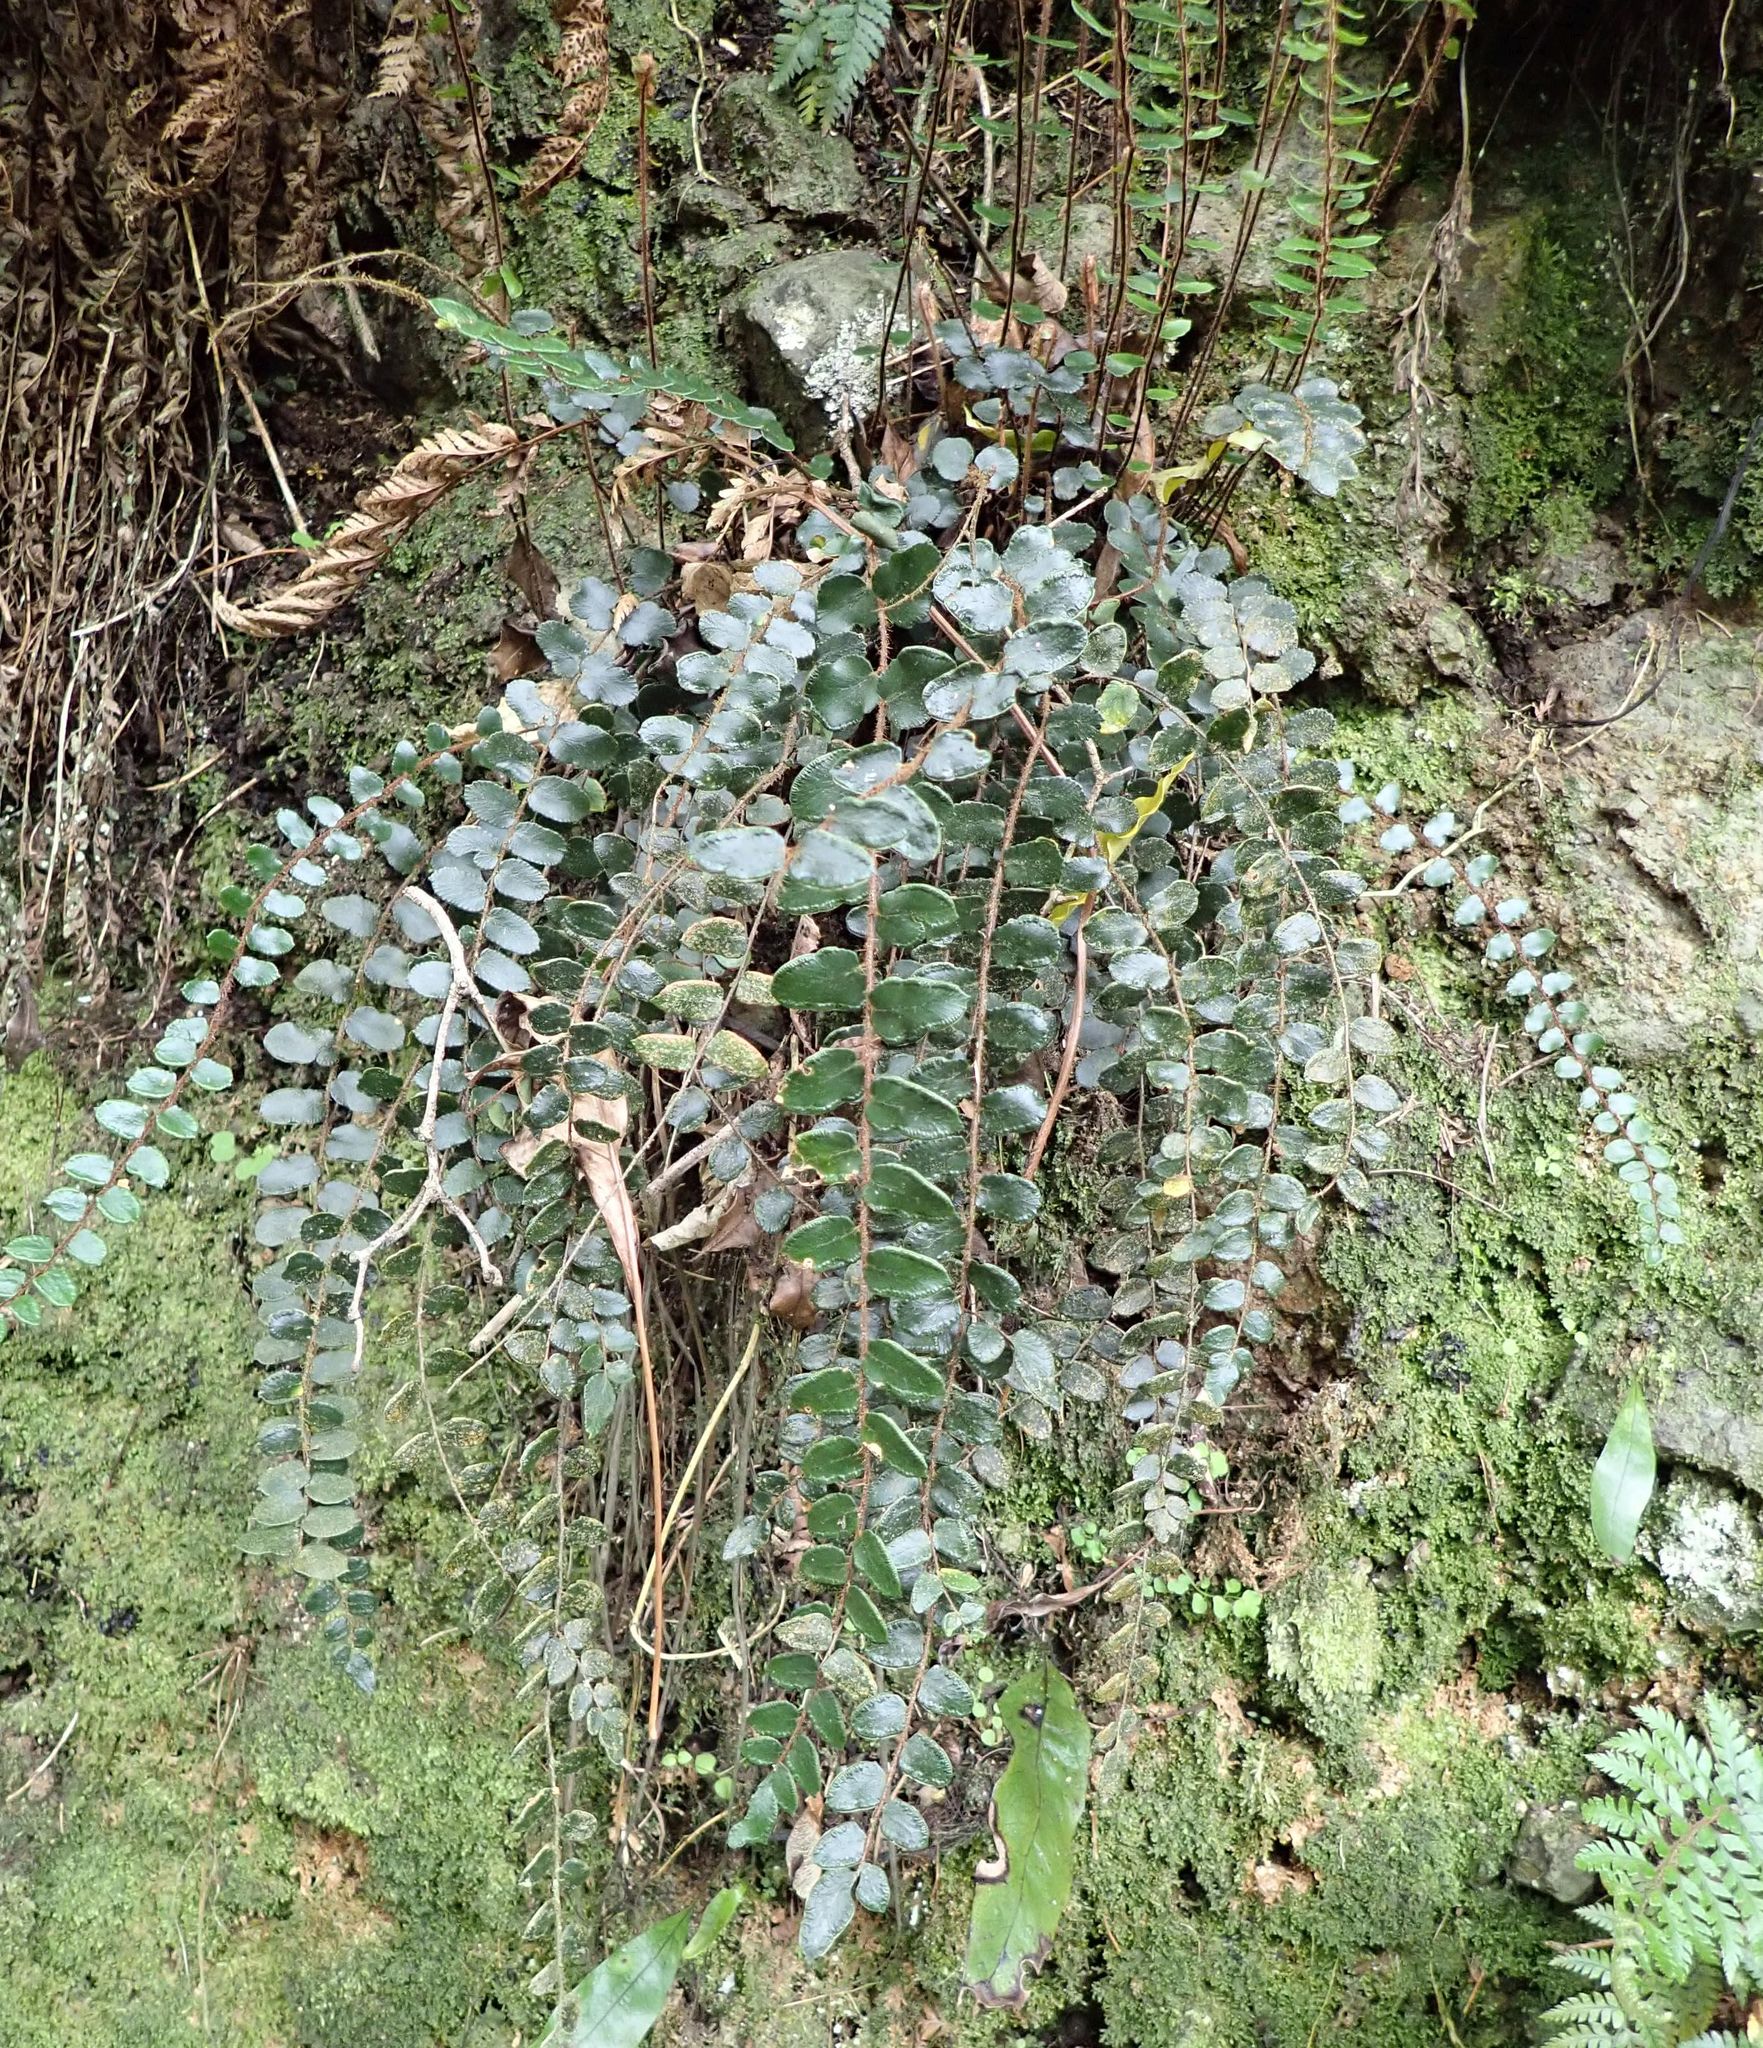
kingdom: Plantae
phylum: Tracheophyta
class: Polypodiopsida
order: Polypodiales
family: Pteridaceae
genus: Pellaea
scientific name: Pellaea rotundifolia
